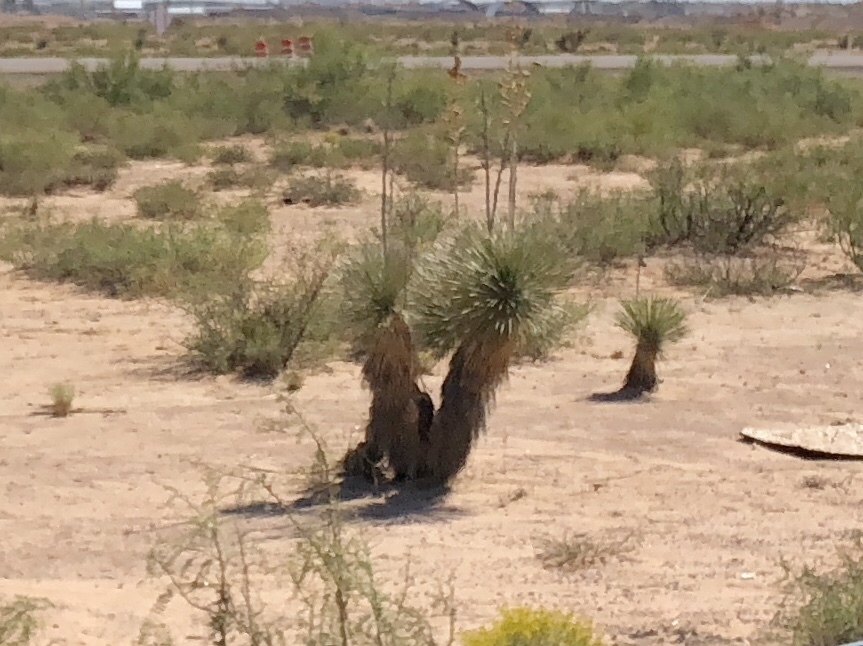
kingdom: Plantae
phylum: Tracheophyta
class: Liliopsida
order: Asparagales
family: Asparagaceae
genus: Yucca
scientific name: Yucca elata
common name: Palmella
